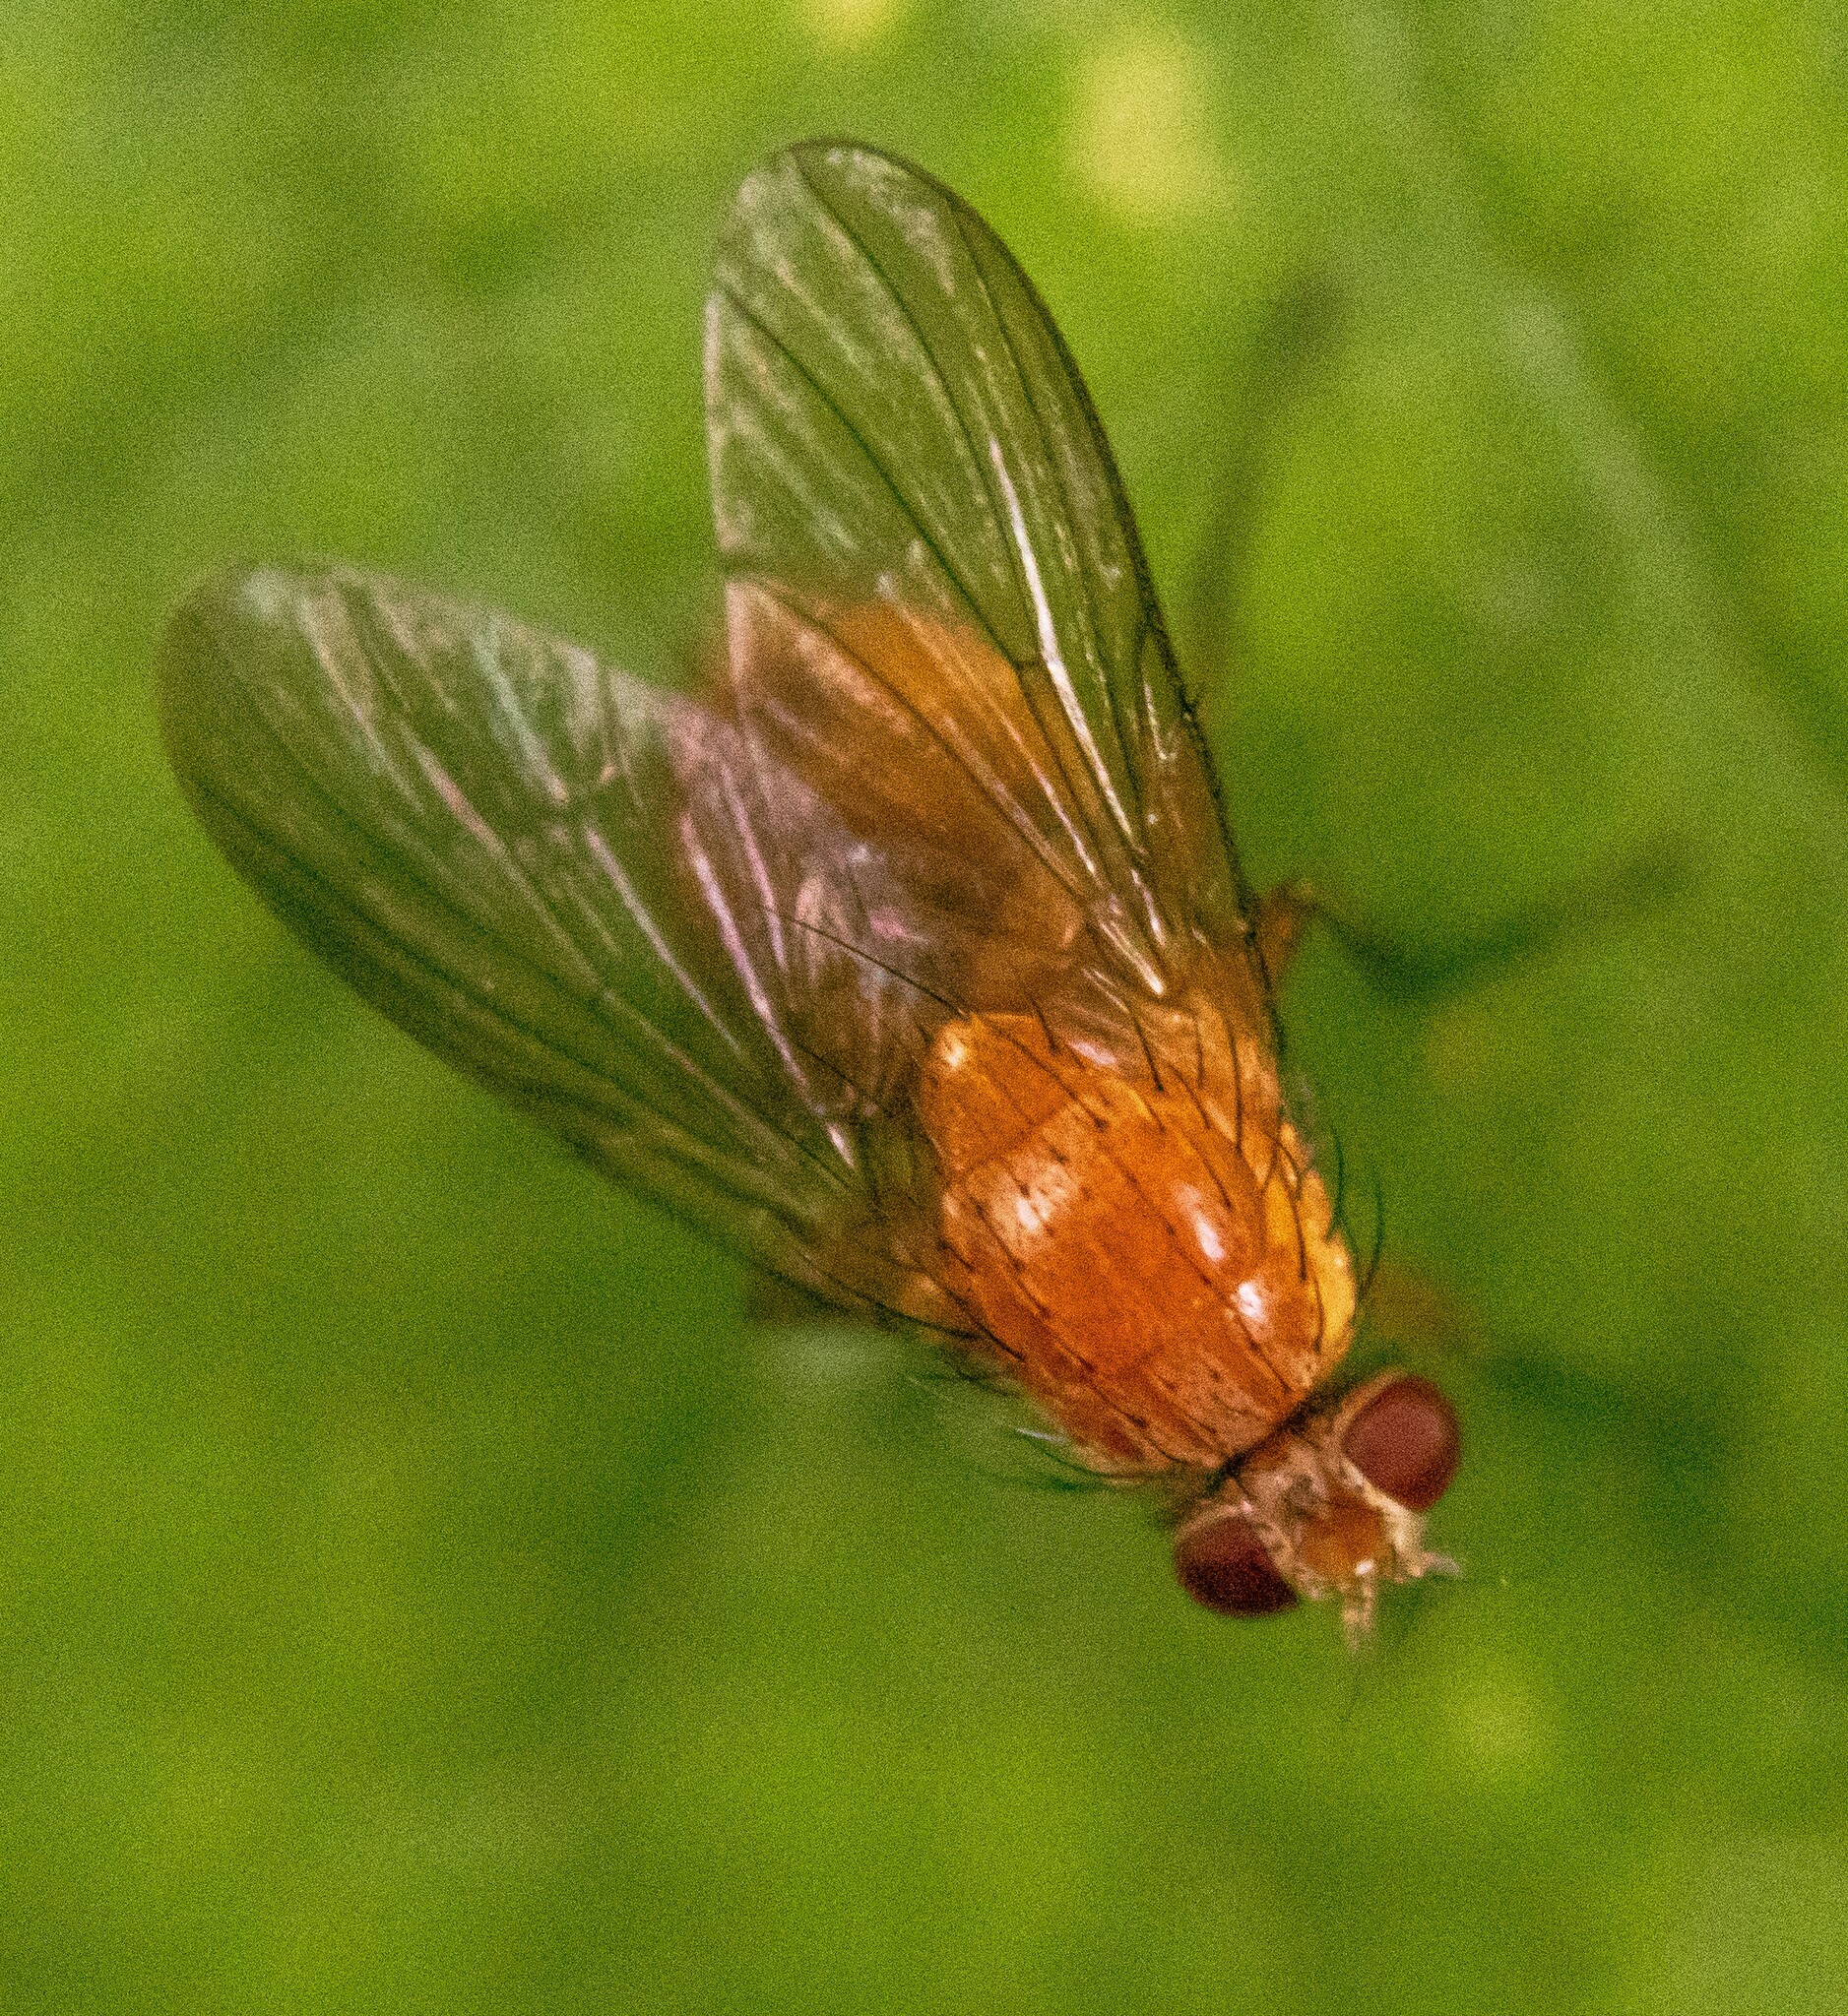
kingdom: Animalia
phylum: Arthropoda
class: Insecta
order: Diptera
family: Muscidae
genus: Phaonia
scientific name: Phaonia pallida
